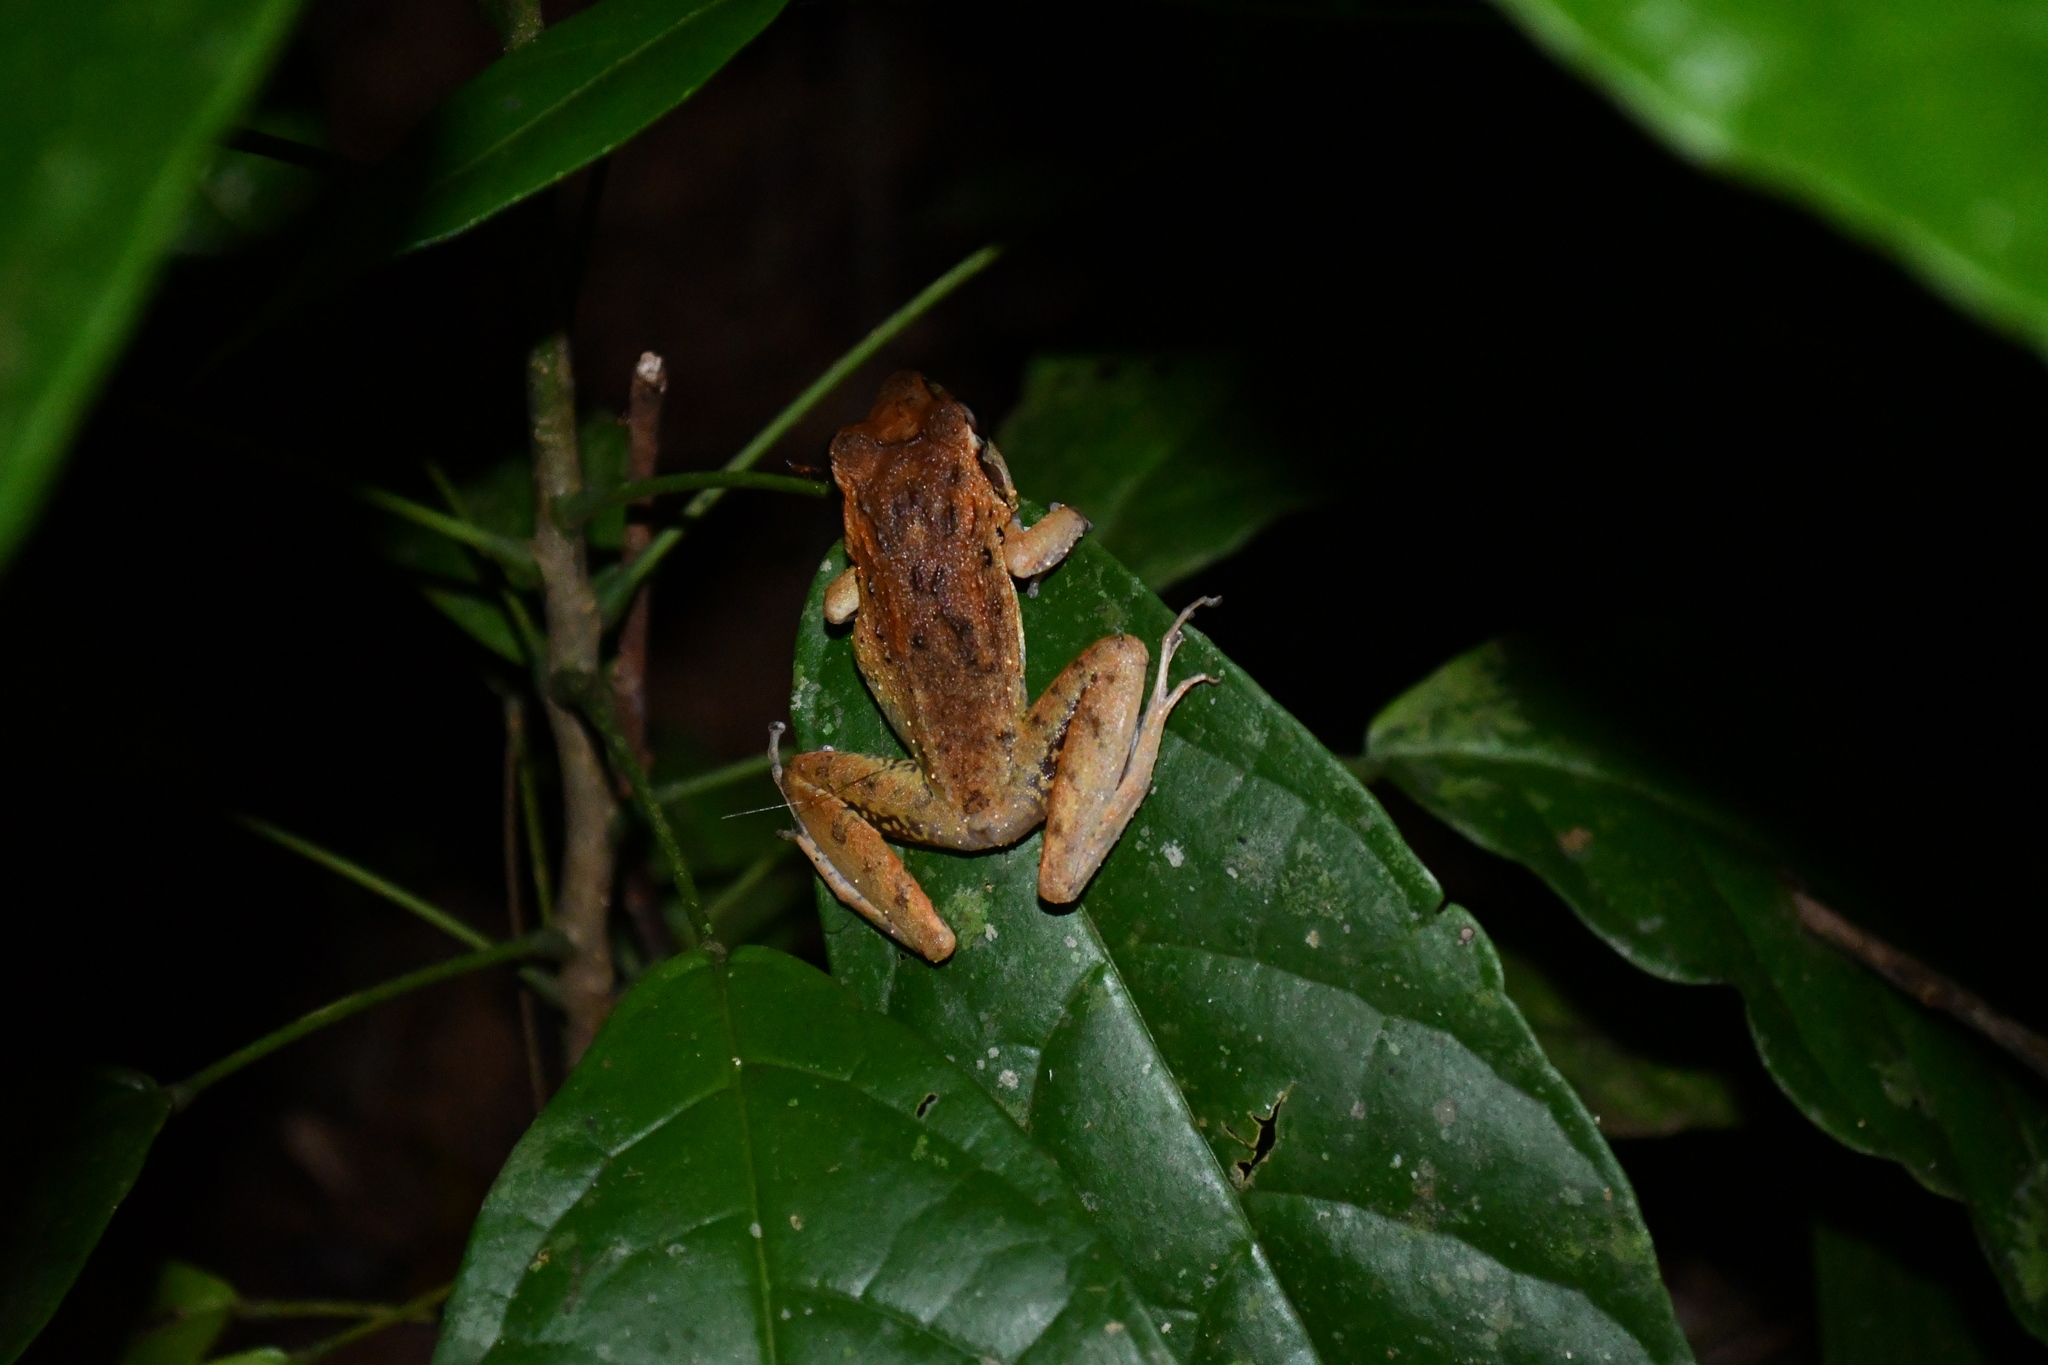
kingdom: Animalia
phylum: Chordata
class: Amphibia
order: Anura
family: Craugastoridae
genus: Craugastor
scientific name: Craugastor fitzingeri
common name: Fitzinger's robber frog
